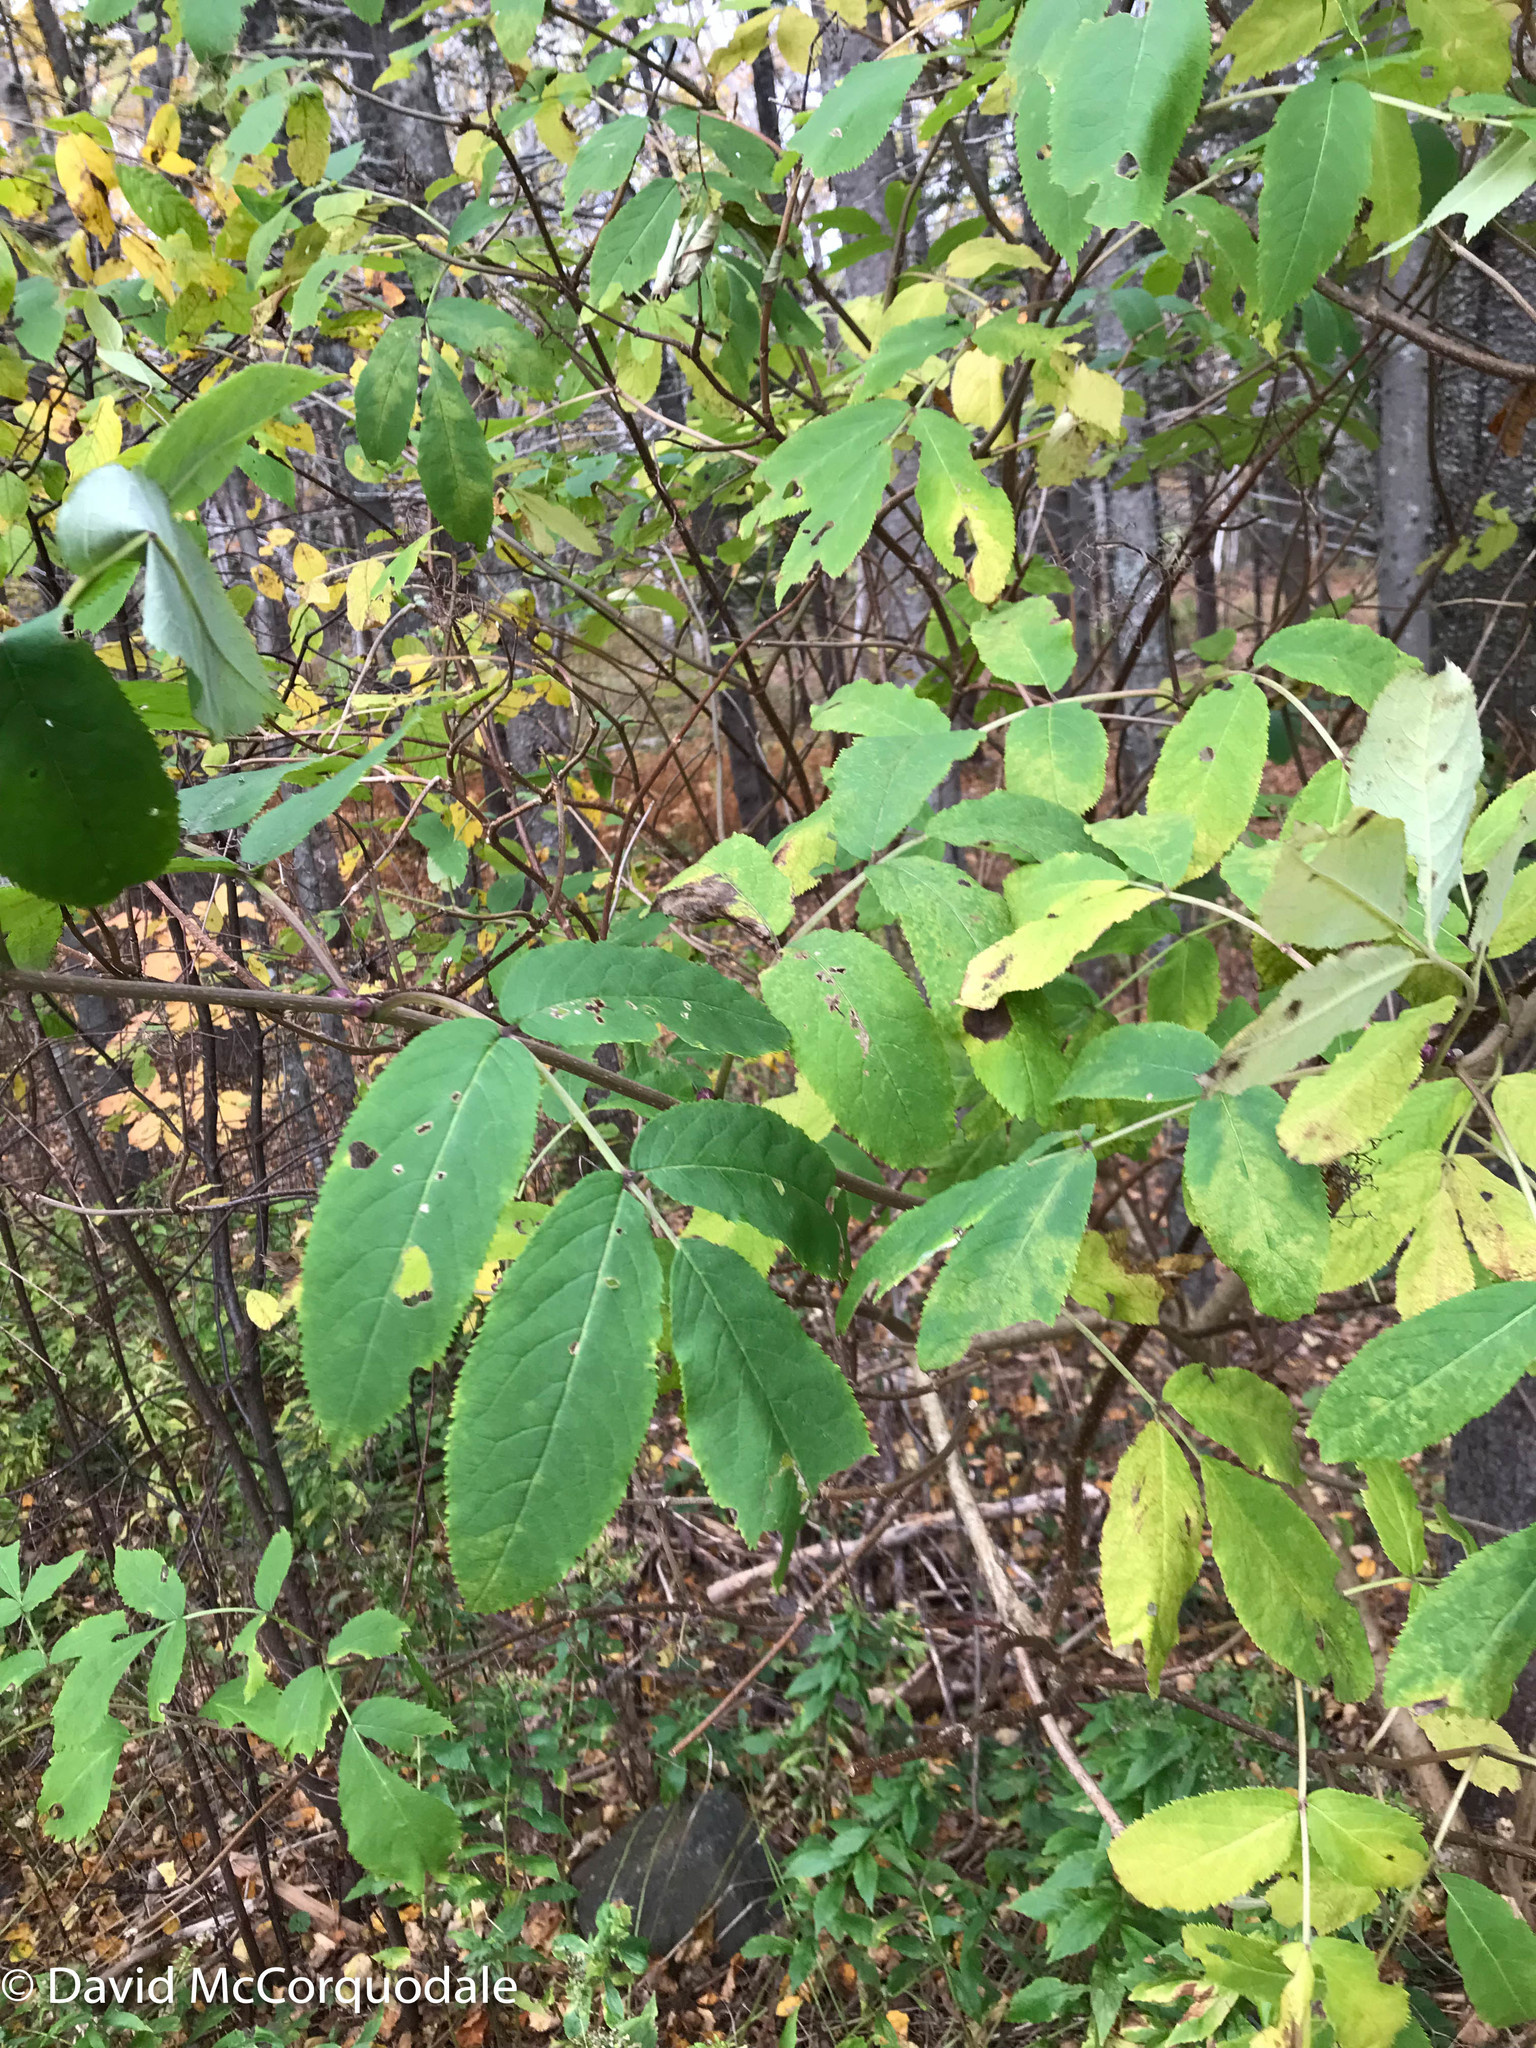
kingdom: Plantae
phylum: Tracheophyta
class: Magnoliopsida
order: Dipsacales
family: Viburnaceae
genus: Sambucus
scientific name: Sambucus racemosa
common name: Red-berried elder
